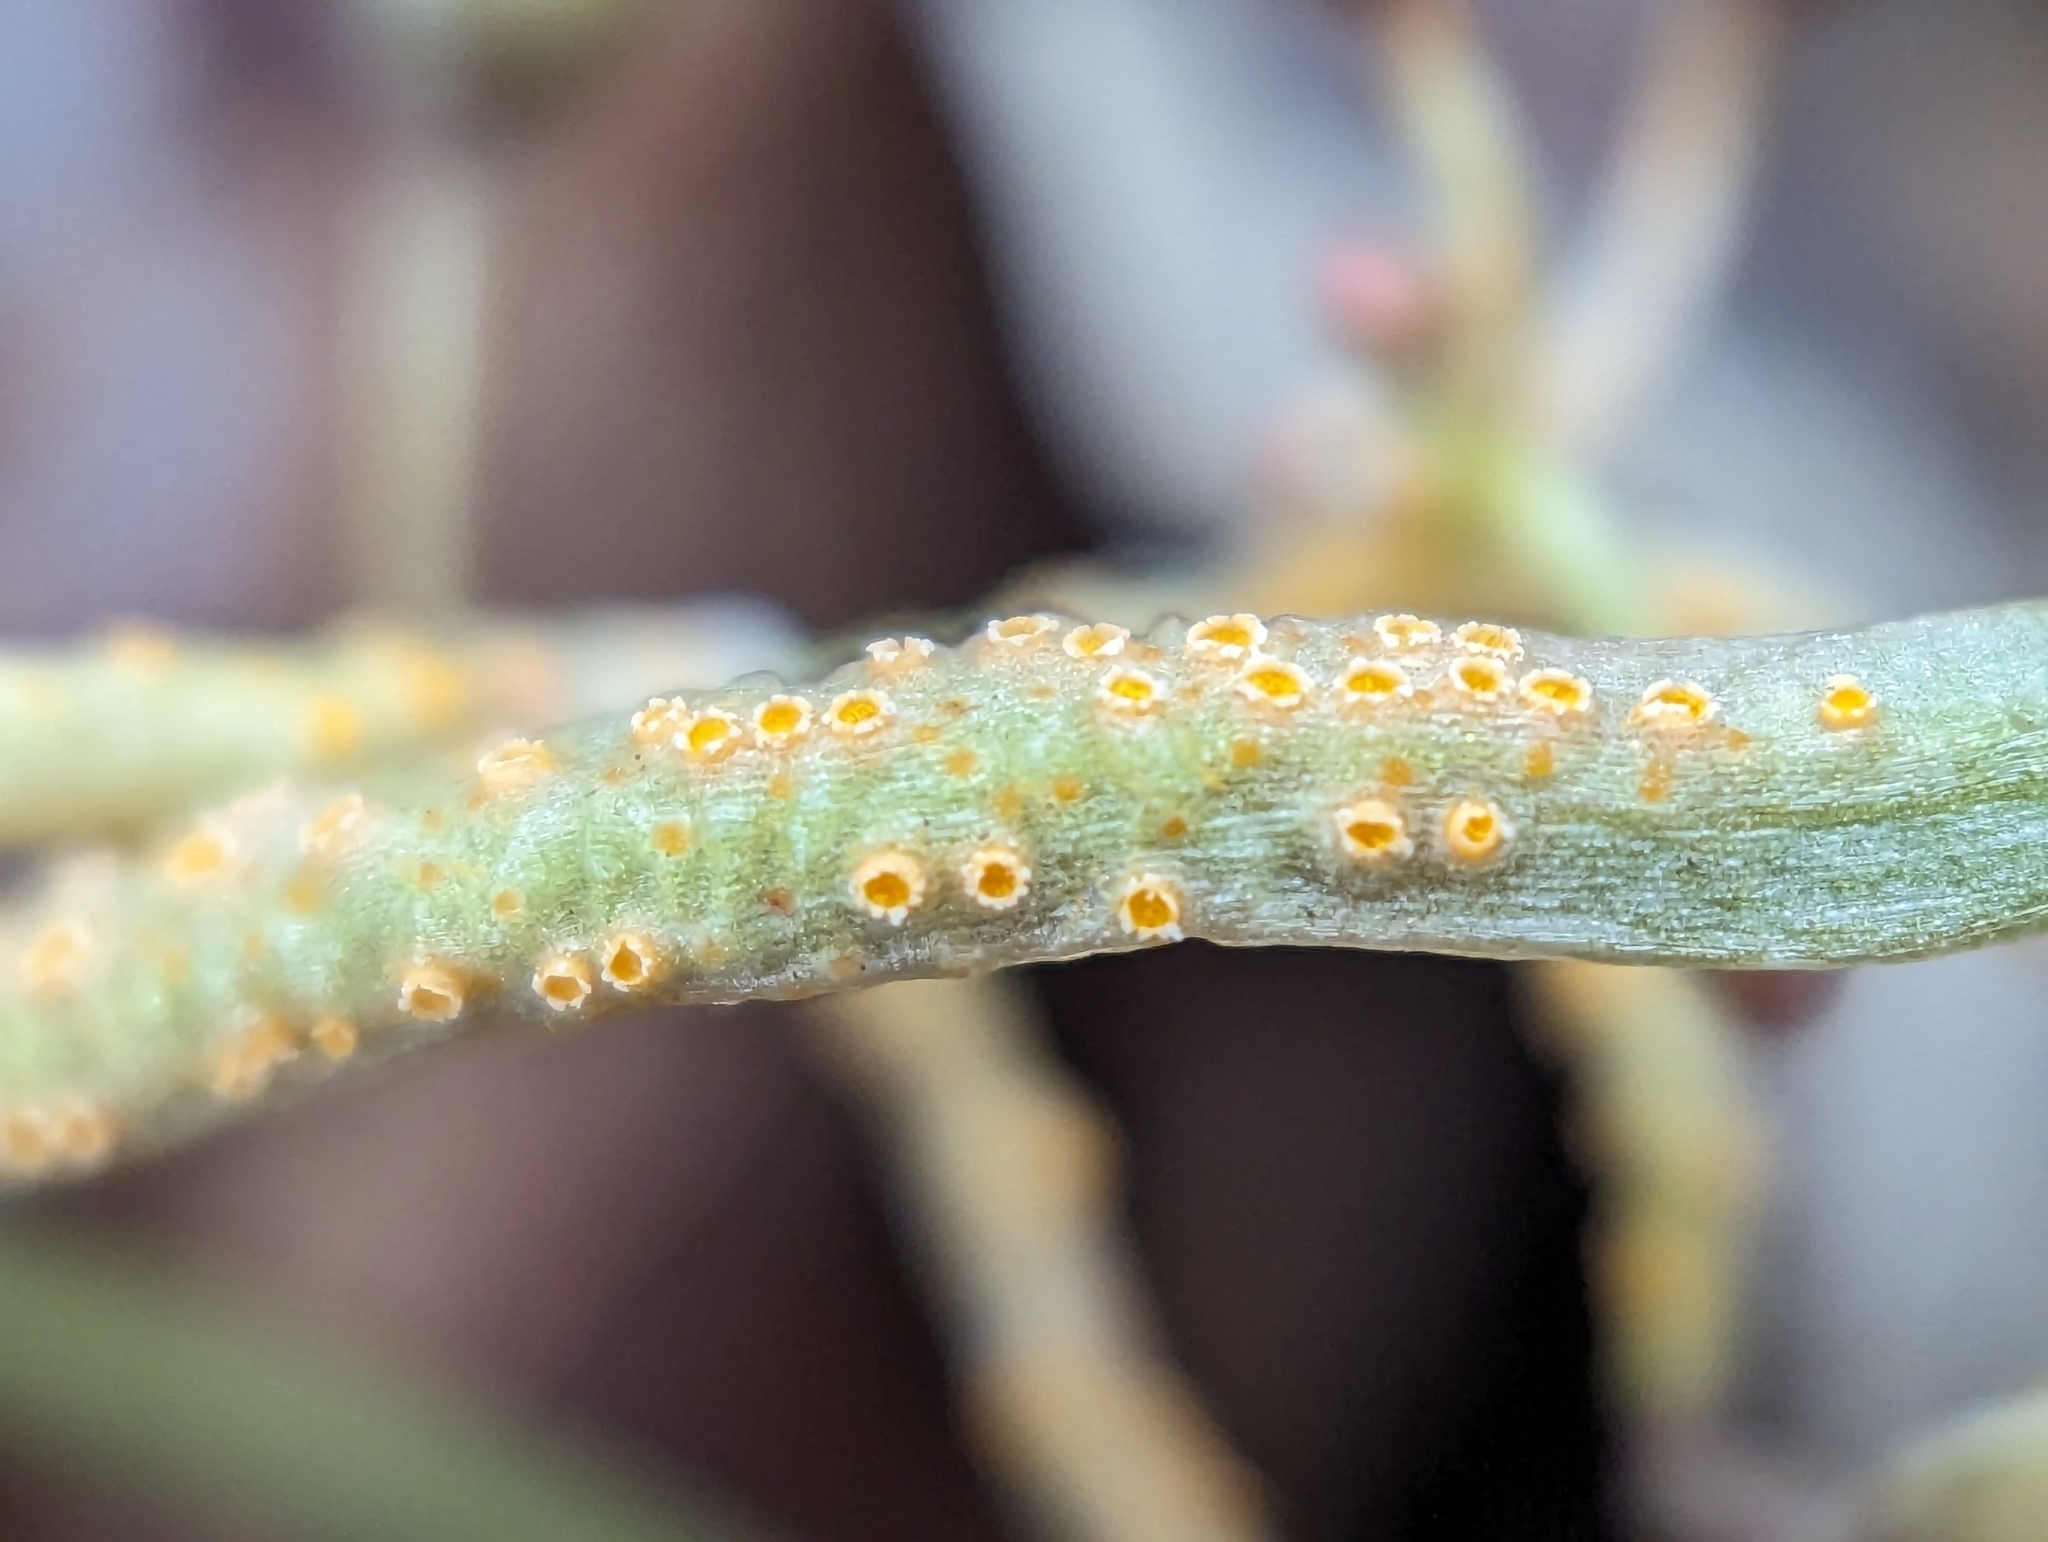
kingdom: Fungi
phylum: Basidiomycota
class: Pucciniomycetes
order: Pucciniales
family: Pucciniaceae
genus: Puccinia
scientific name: Puccinia mariae-wilsoniae
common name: Spring beauty rust
